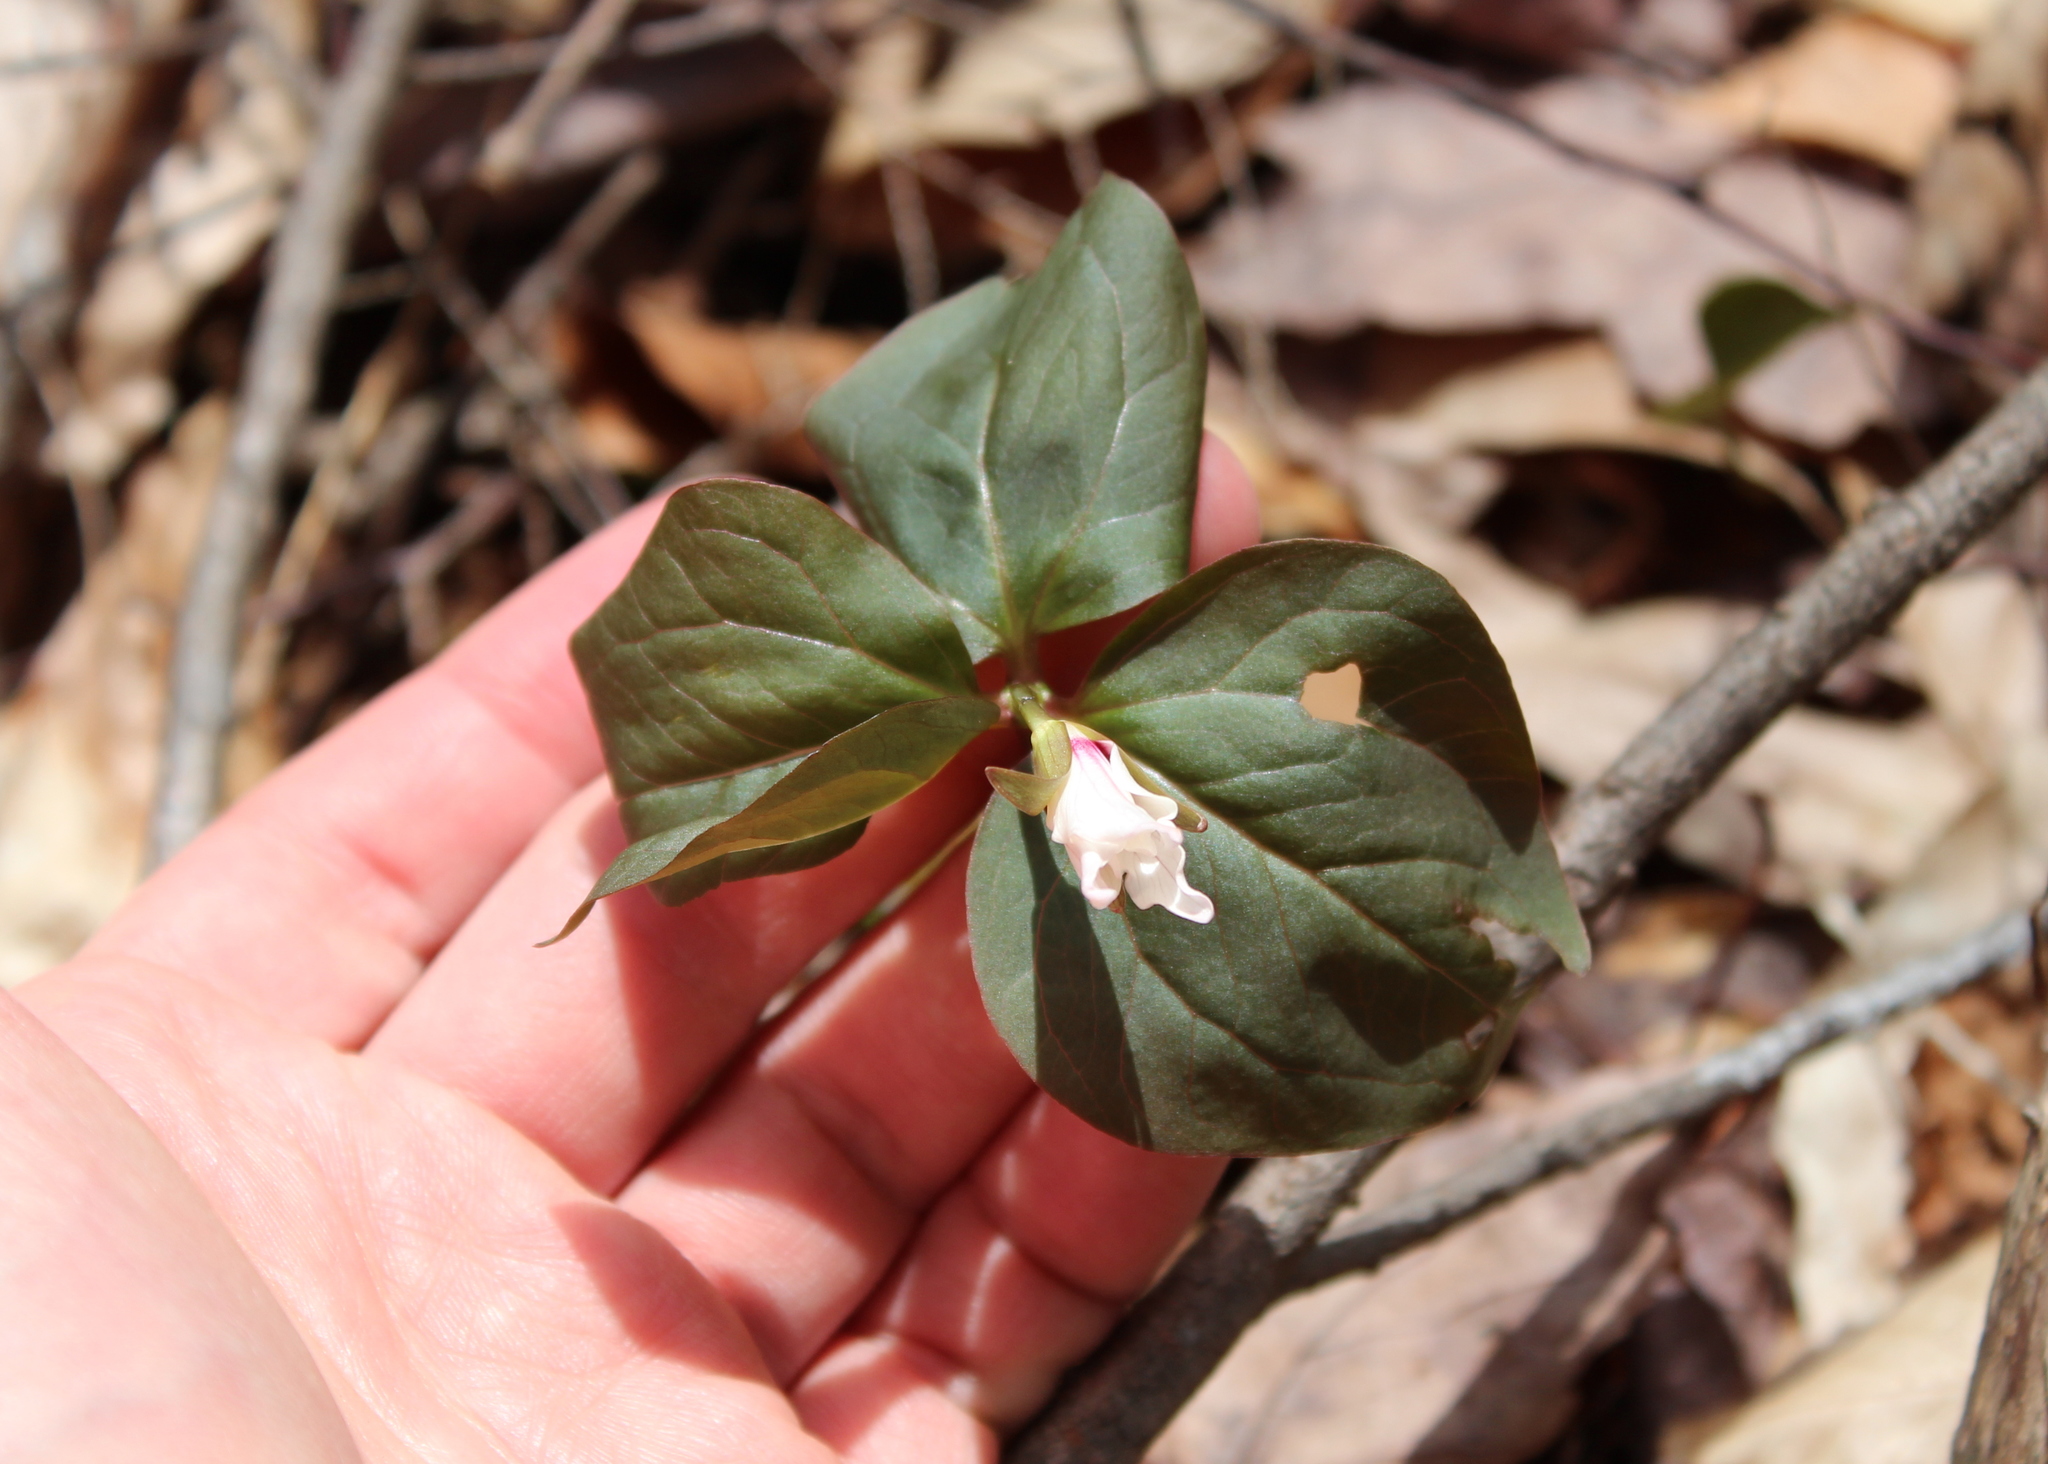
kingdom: Plantae
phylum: Tracheophyta
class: Liliopsida
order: Liliales
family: Melanthiaceae
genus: Trillium
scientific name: Trillium undulatum
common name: Paint trillium
